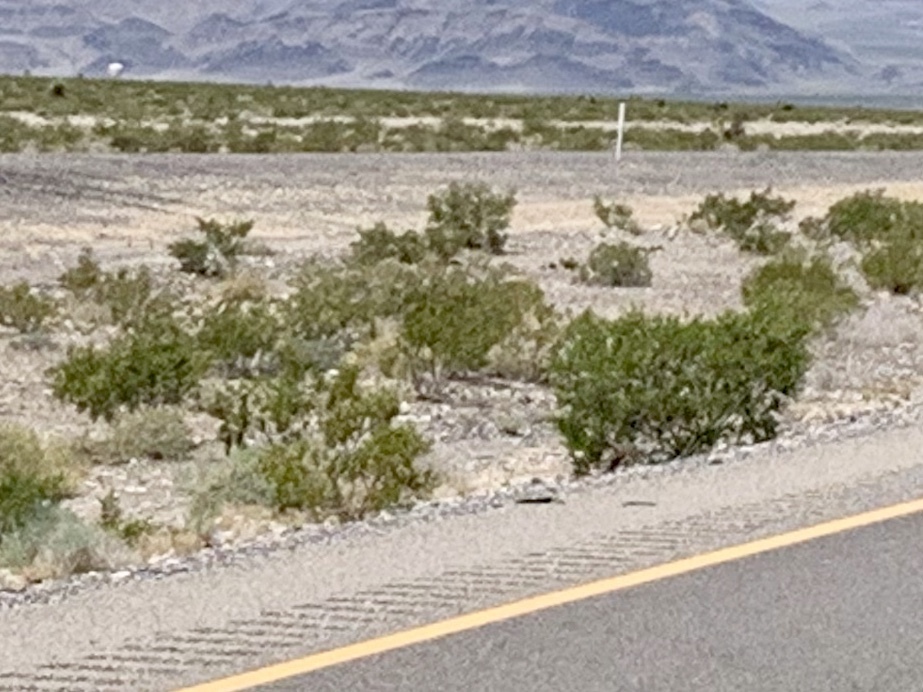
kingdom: Plantae
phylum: Tracheophyta
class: Magnoliopsida
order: Zygophyllales
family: Zygophyllaceae
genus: Larrea
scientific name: Larrea tridentata
